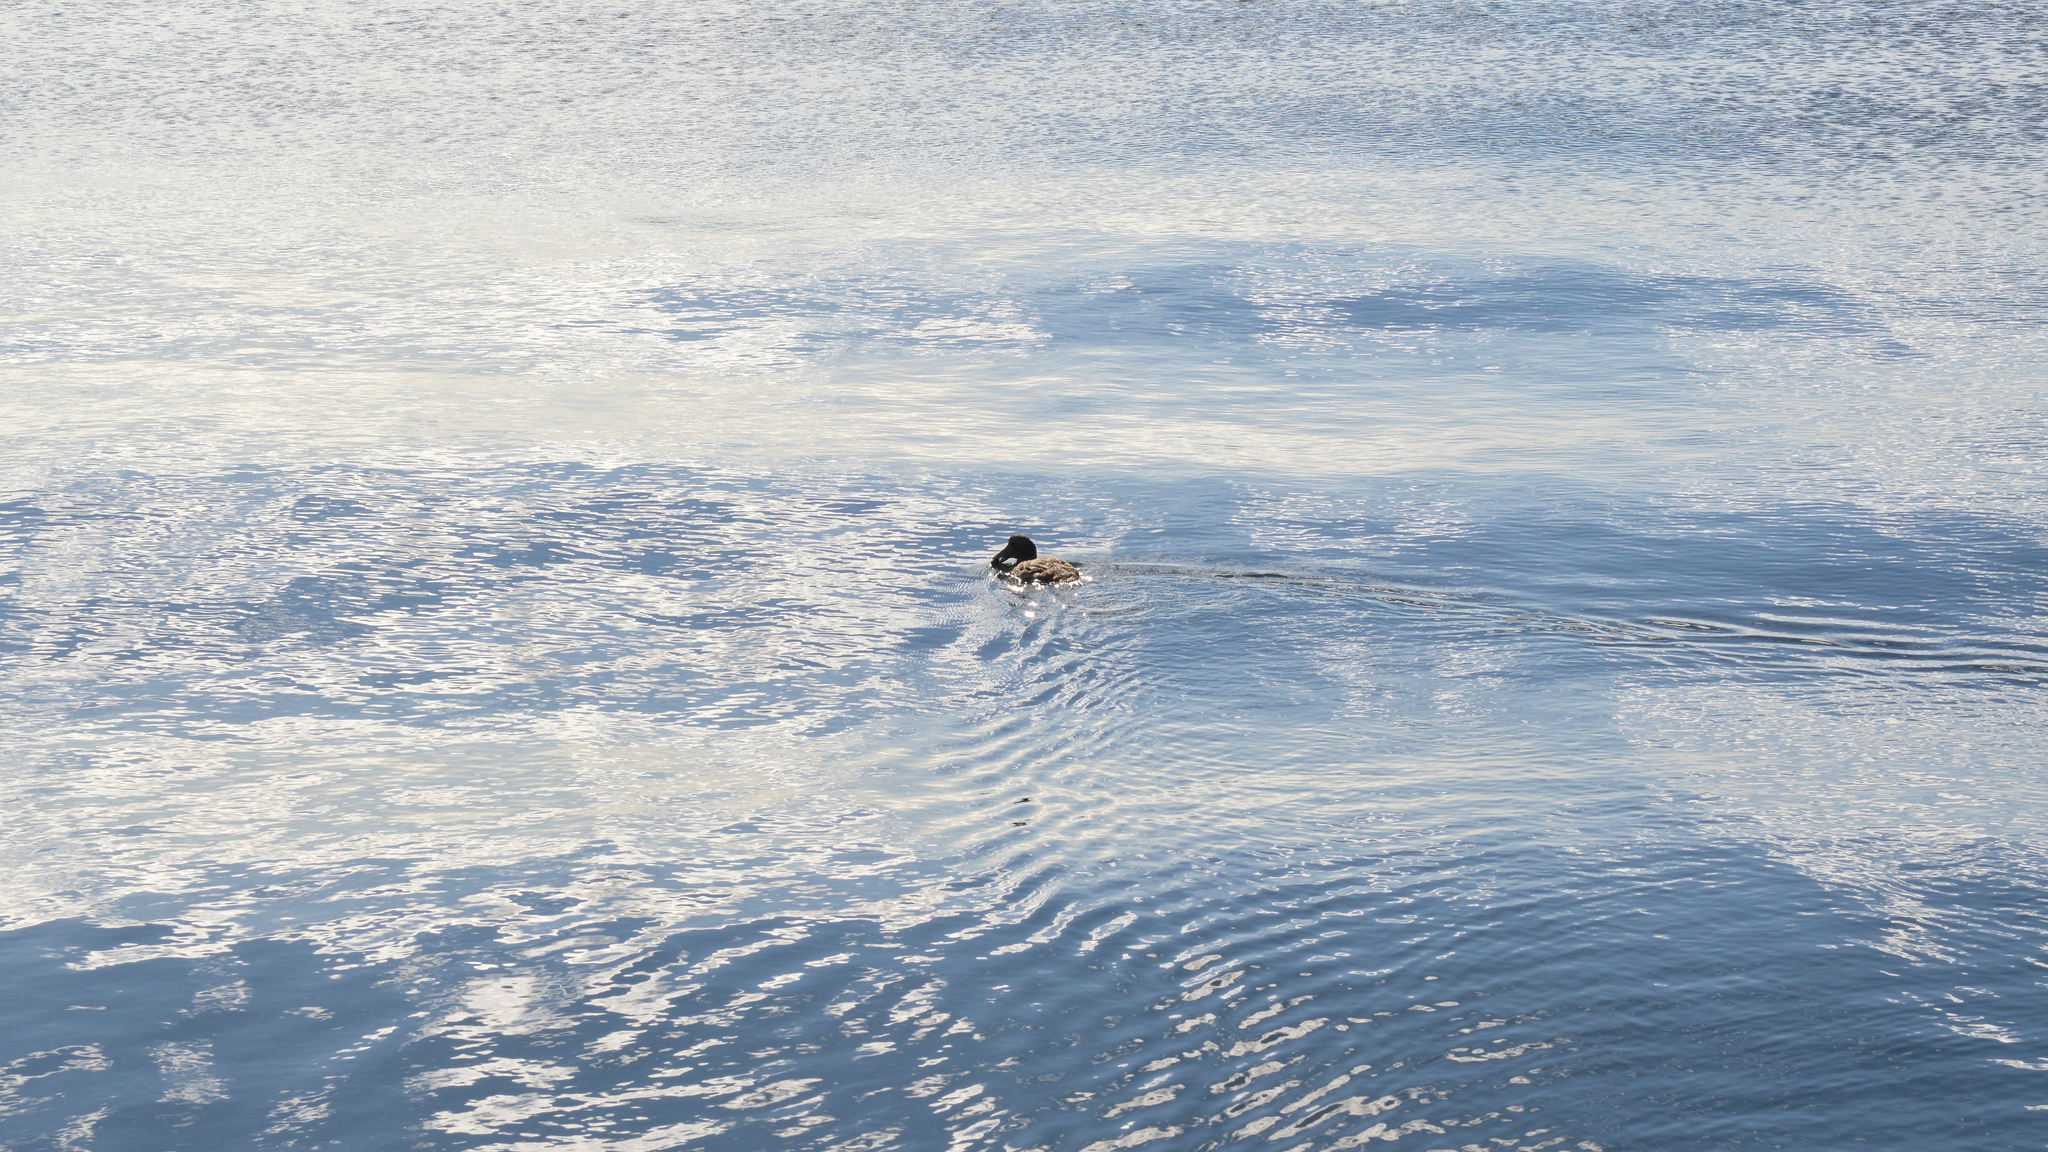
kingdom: Animalia
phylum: Chordata
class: Aves
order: Anseriformes
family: Anatidae
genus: Somateria
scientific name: Somateria mollissima
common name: Common eider
